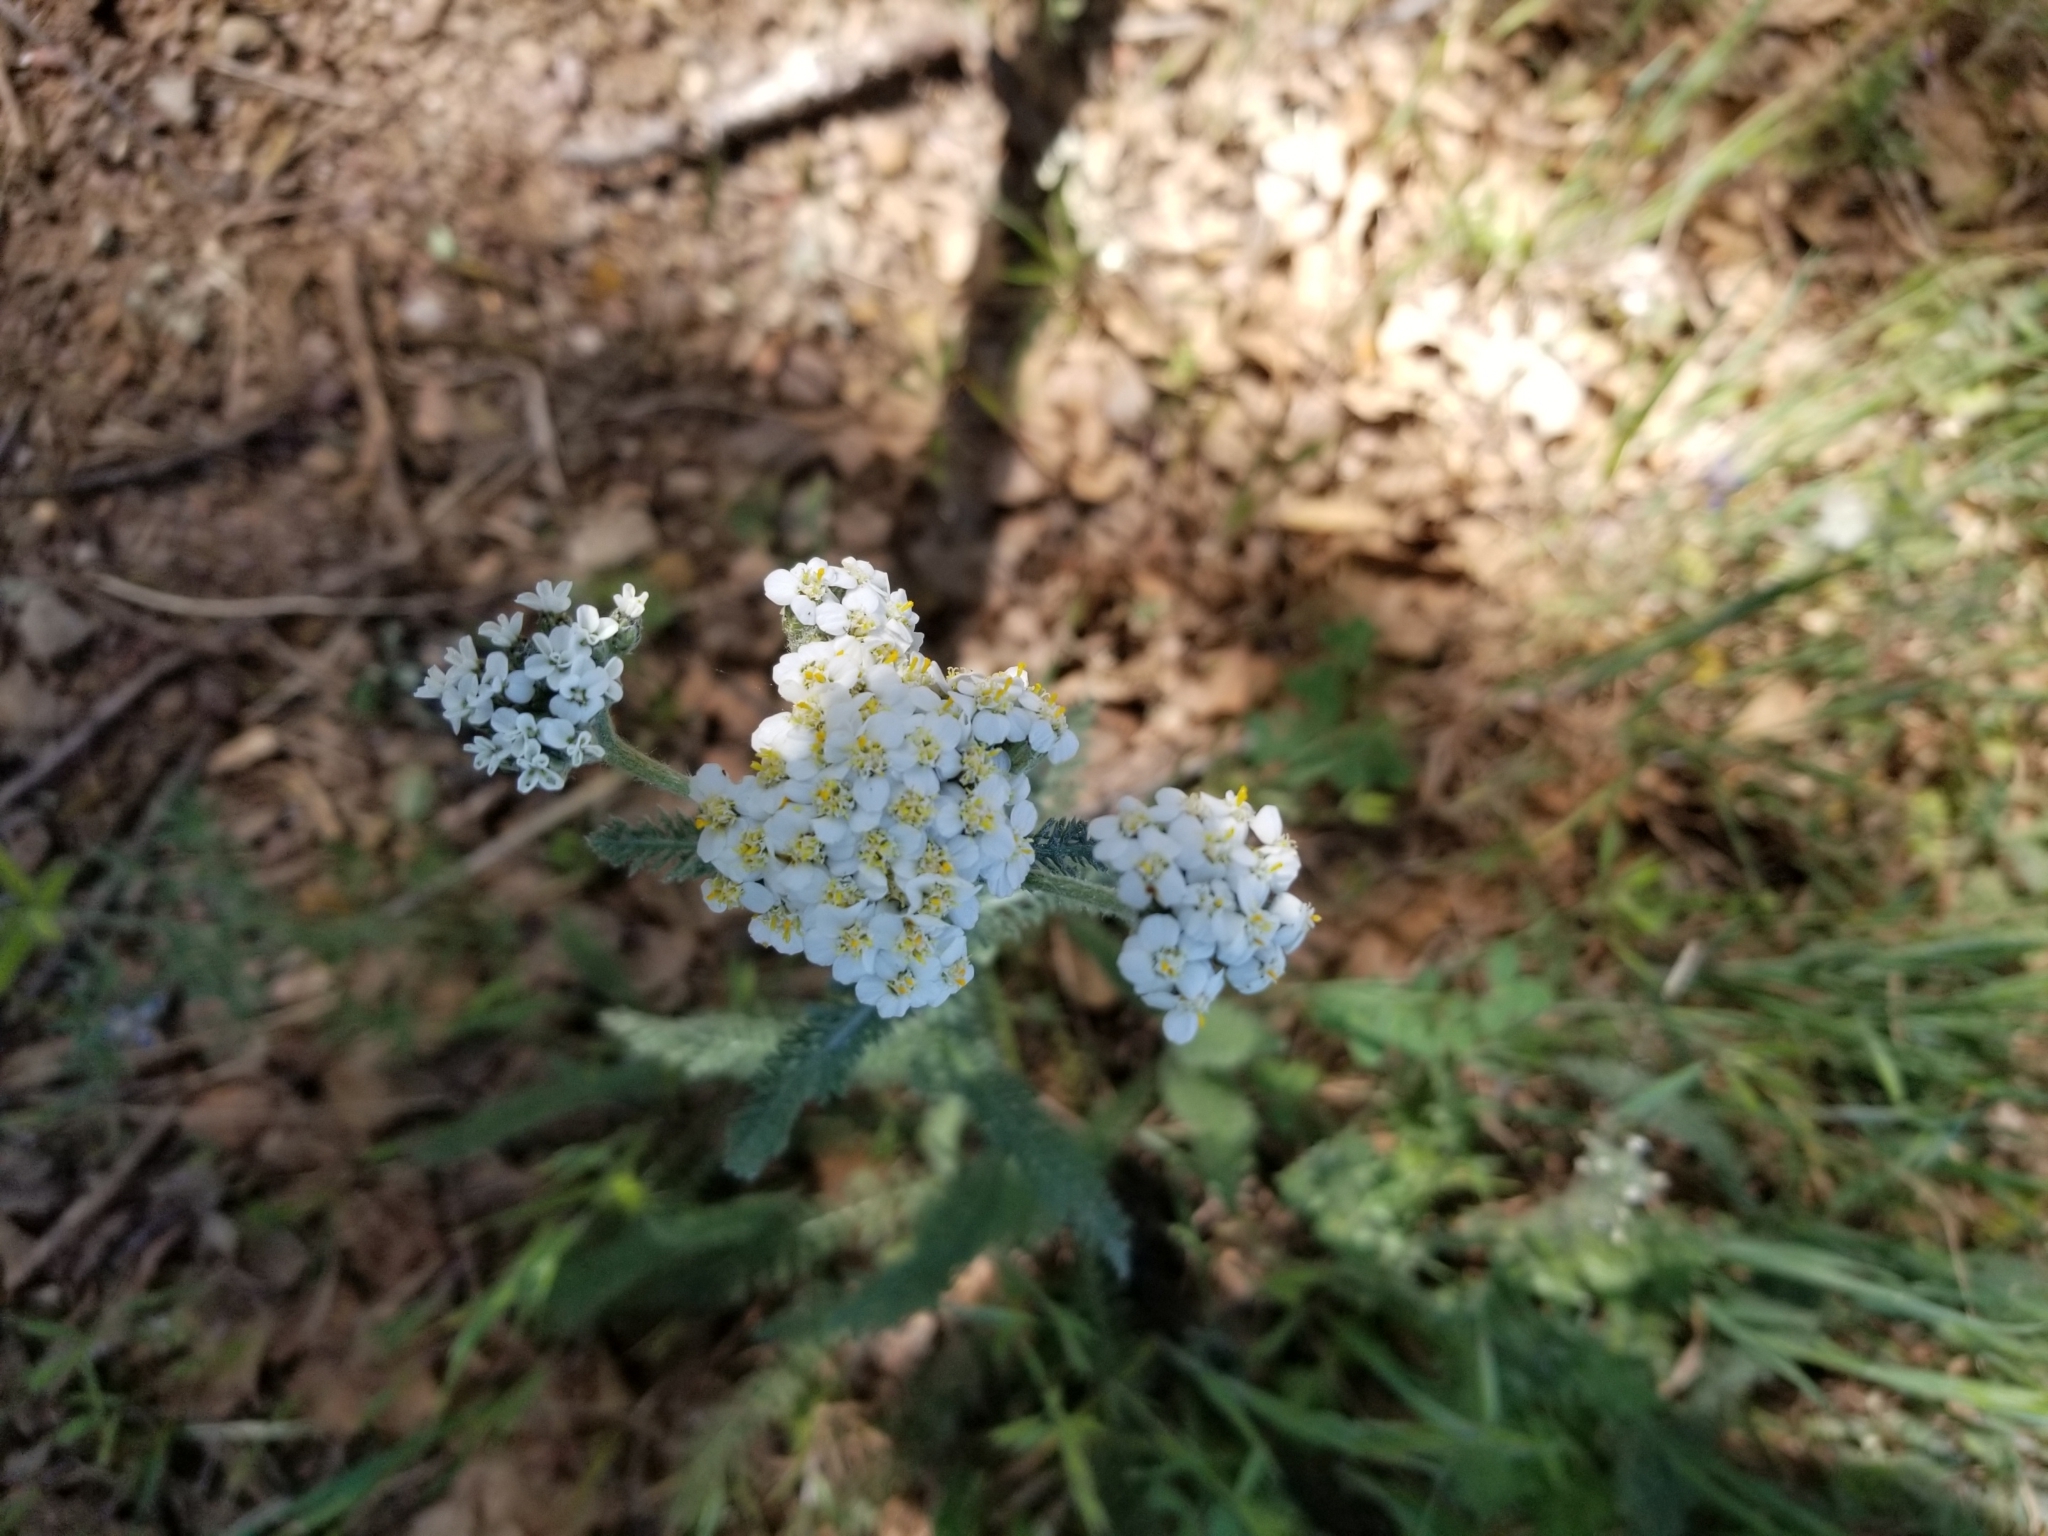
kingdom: Plantae
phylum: Tracheophyta
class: Magnoliopsida
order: Asterales
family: Asteraceae
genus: Achillea
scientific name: Achillea millefolium
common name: Yarrow
